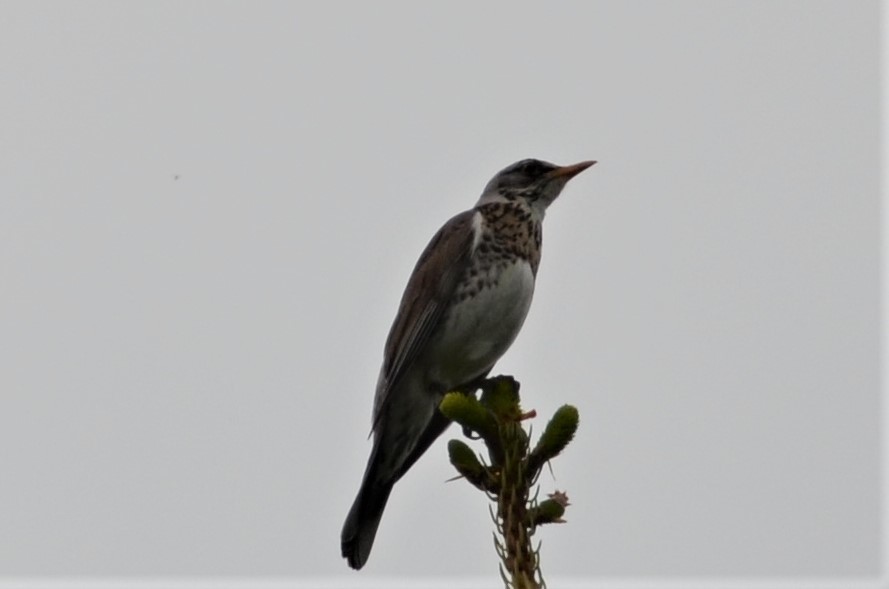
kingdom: Animalia
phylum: Chordata
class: Aves
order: Passeriformes
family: Turdidae
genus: Turdus
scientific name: Turdus pilaris
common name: Fieldfare
